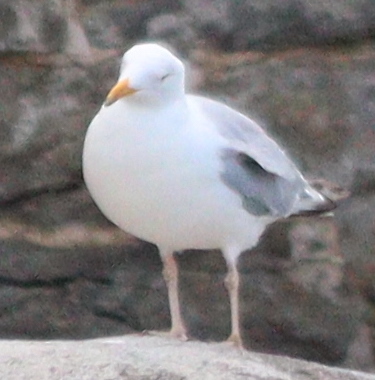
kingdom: Animalia
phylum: Chordata
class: Aves
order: Charadriiformes
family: Laridae
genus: Larus
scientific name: Larus argentatus
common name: Herring gull
